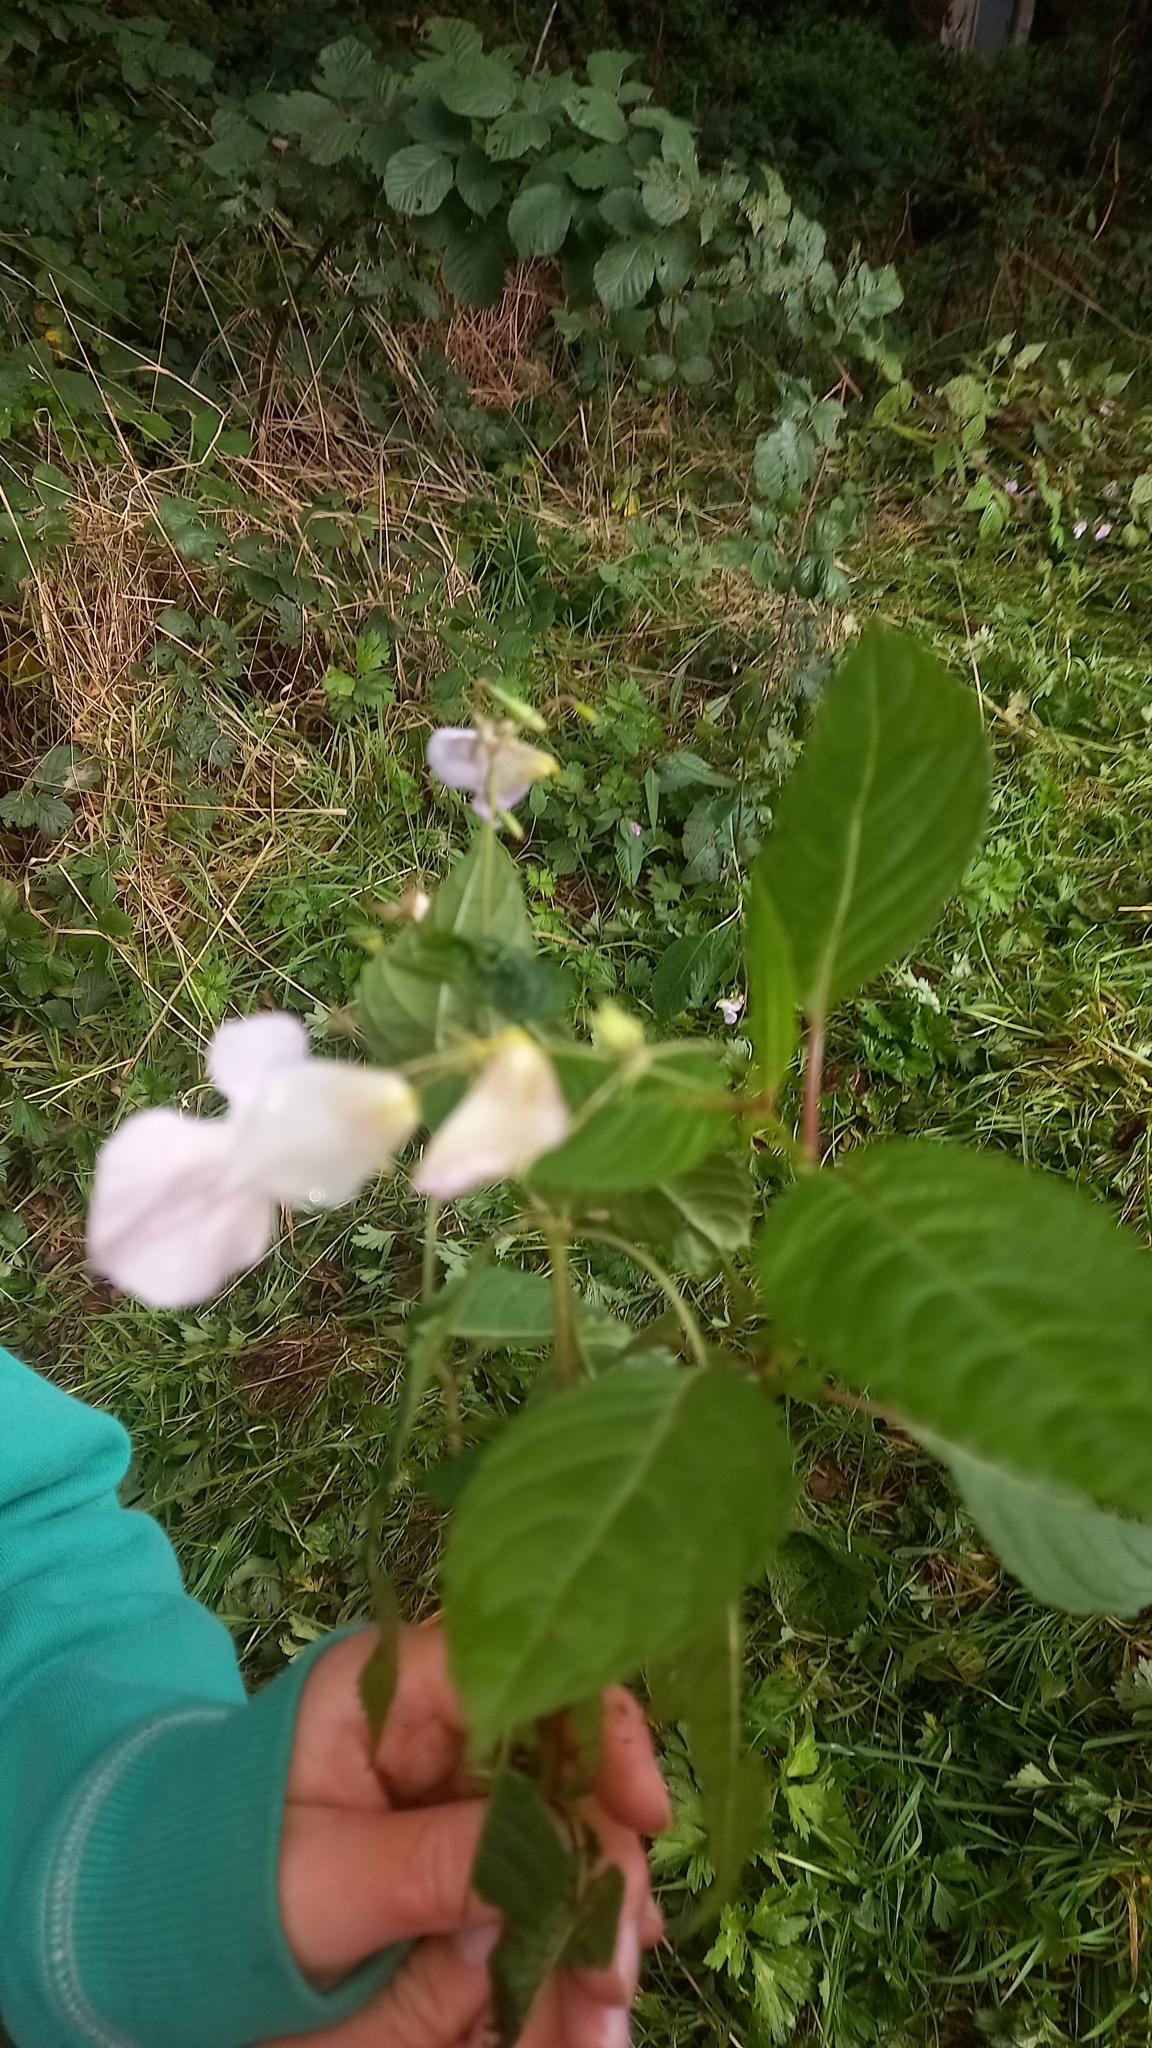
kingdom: Plantae
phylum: Tracheophyta
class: Magnoliopsida
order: Ericales
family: Balsaminaceae
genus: Impatiens
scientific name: Impatiens glandulifera
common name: Himalayan balsam
